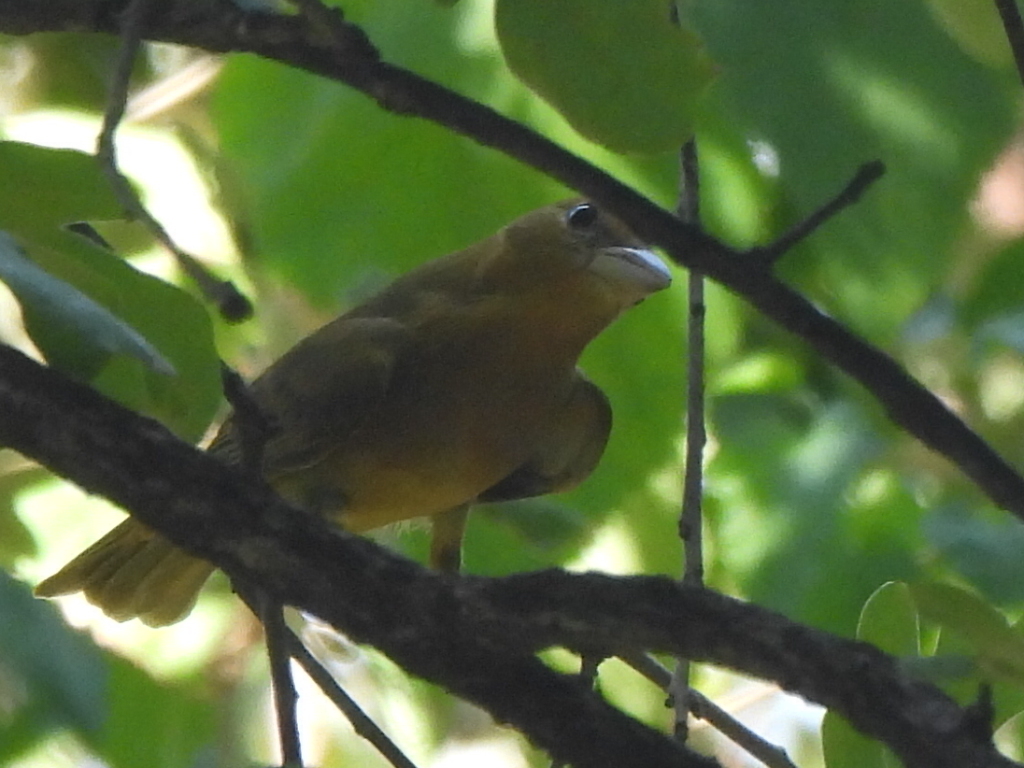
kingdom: Animalia
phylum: Chordata
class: Aves
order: Passeriformes
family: Cardinalidae
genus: Piranga
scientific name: Piranga rubra
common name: Summer tanager
